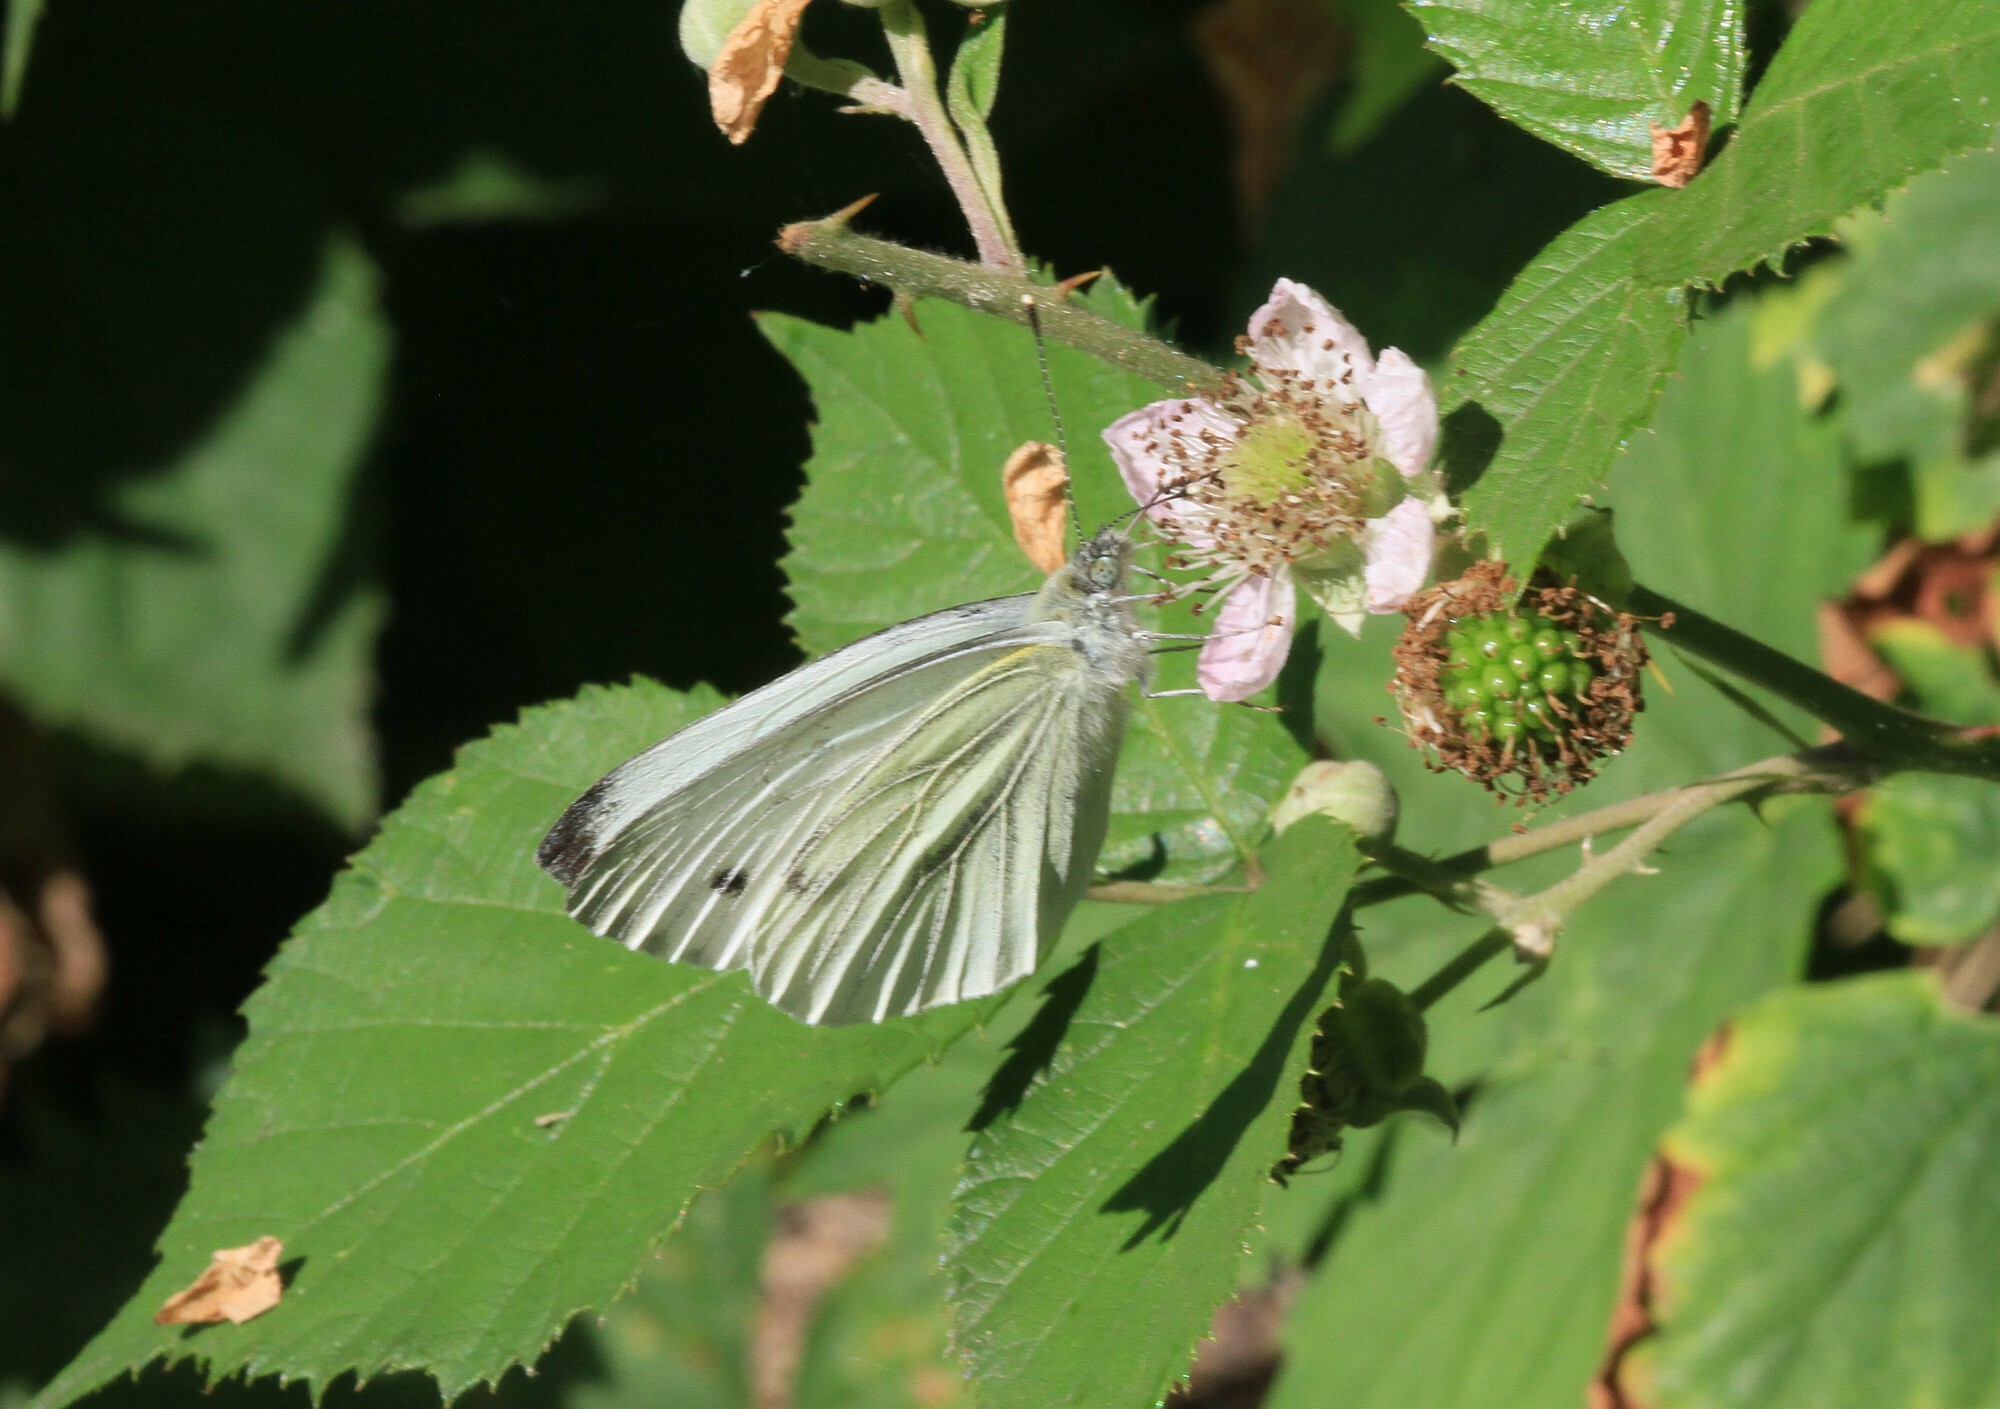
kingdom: Animalia
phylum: Arthropoda
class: Insecta
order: Lepidoptera
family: Pieridae
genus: Pieris
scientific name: Pieris napi
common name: Green-veined white
